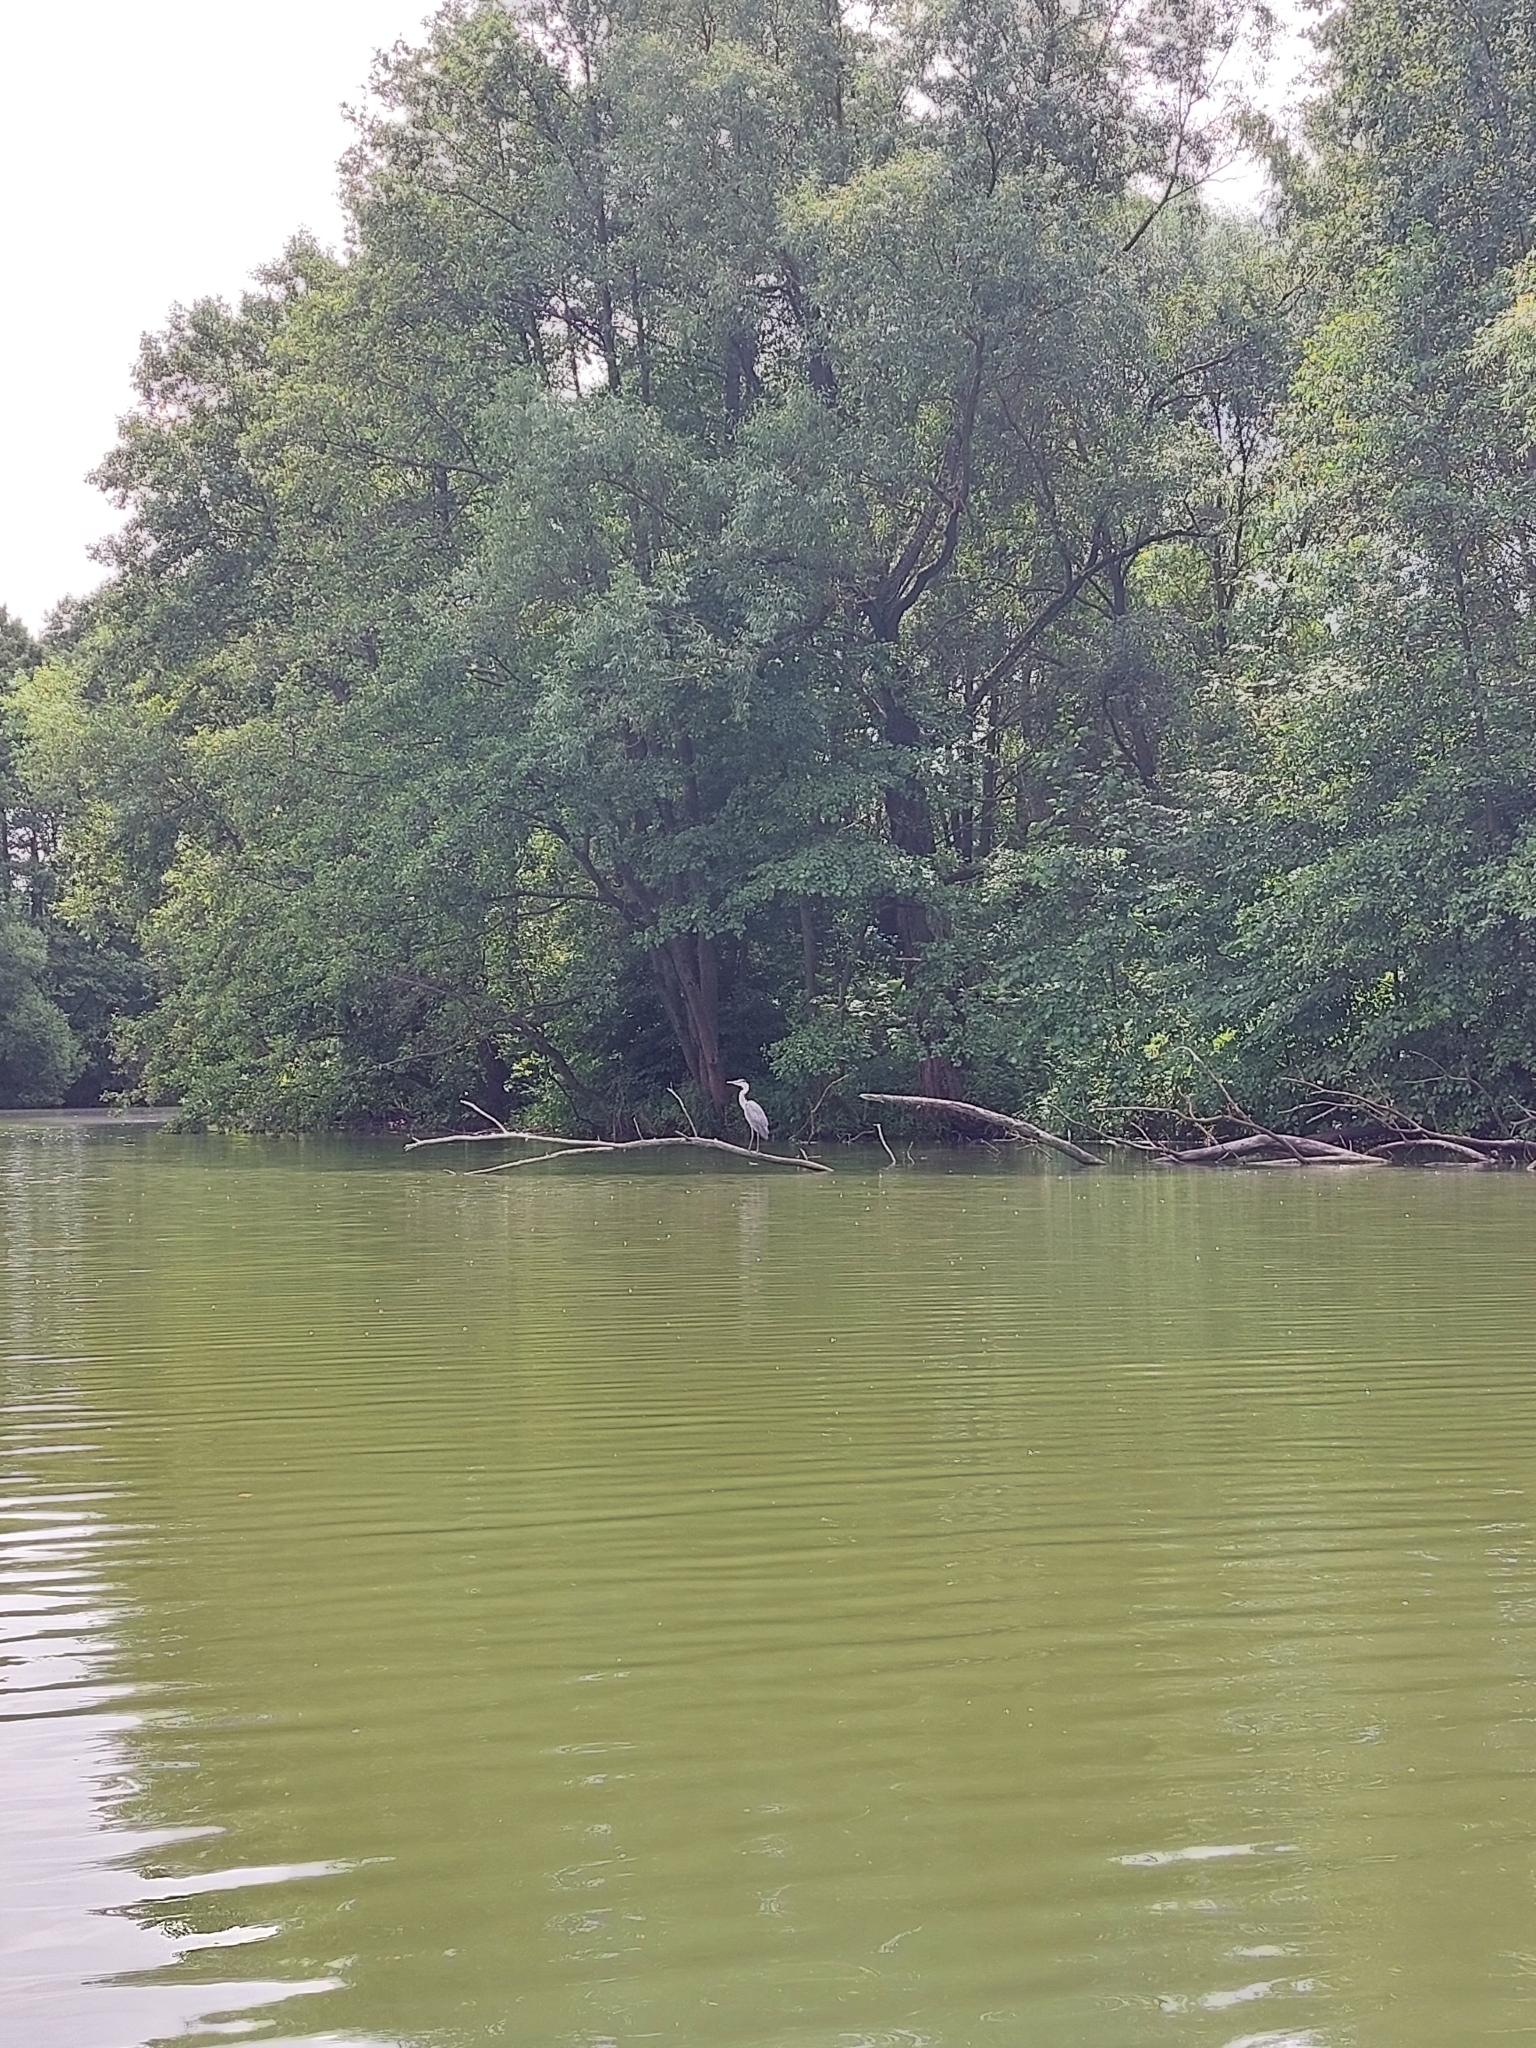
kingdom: Animalia
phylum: Chordata
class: Aves
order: Pelecaniformes
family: Ardeidae
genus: Ardea
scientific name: Ardea cinerea
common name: Grey heron
